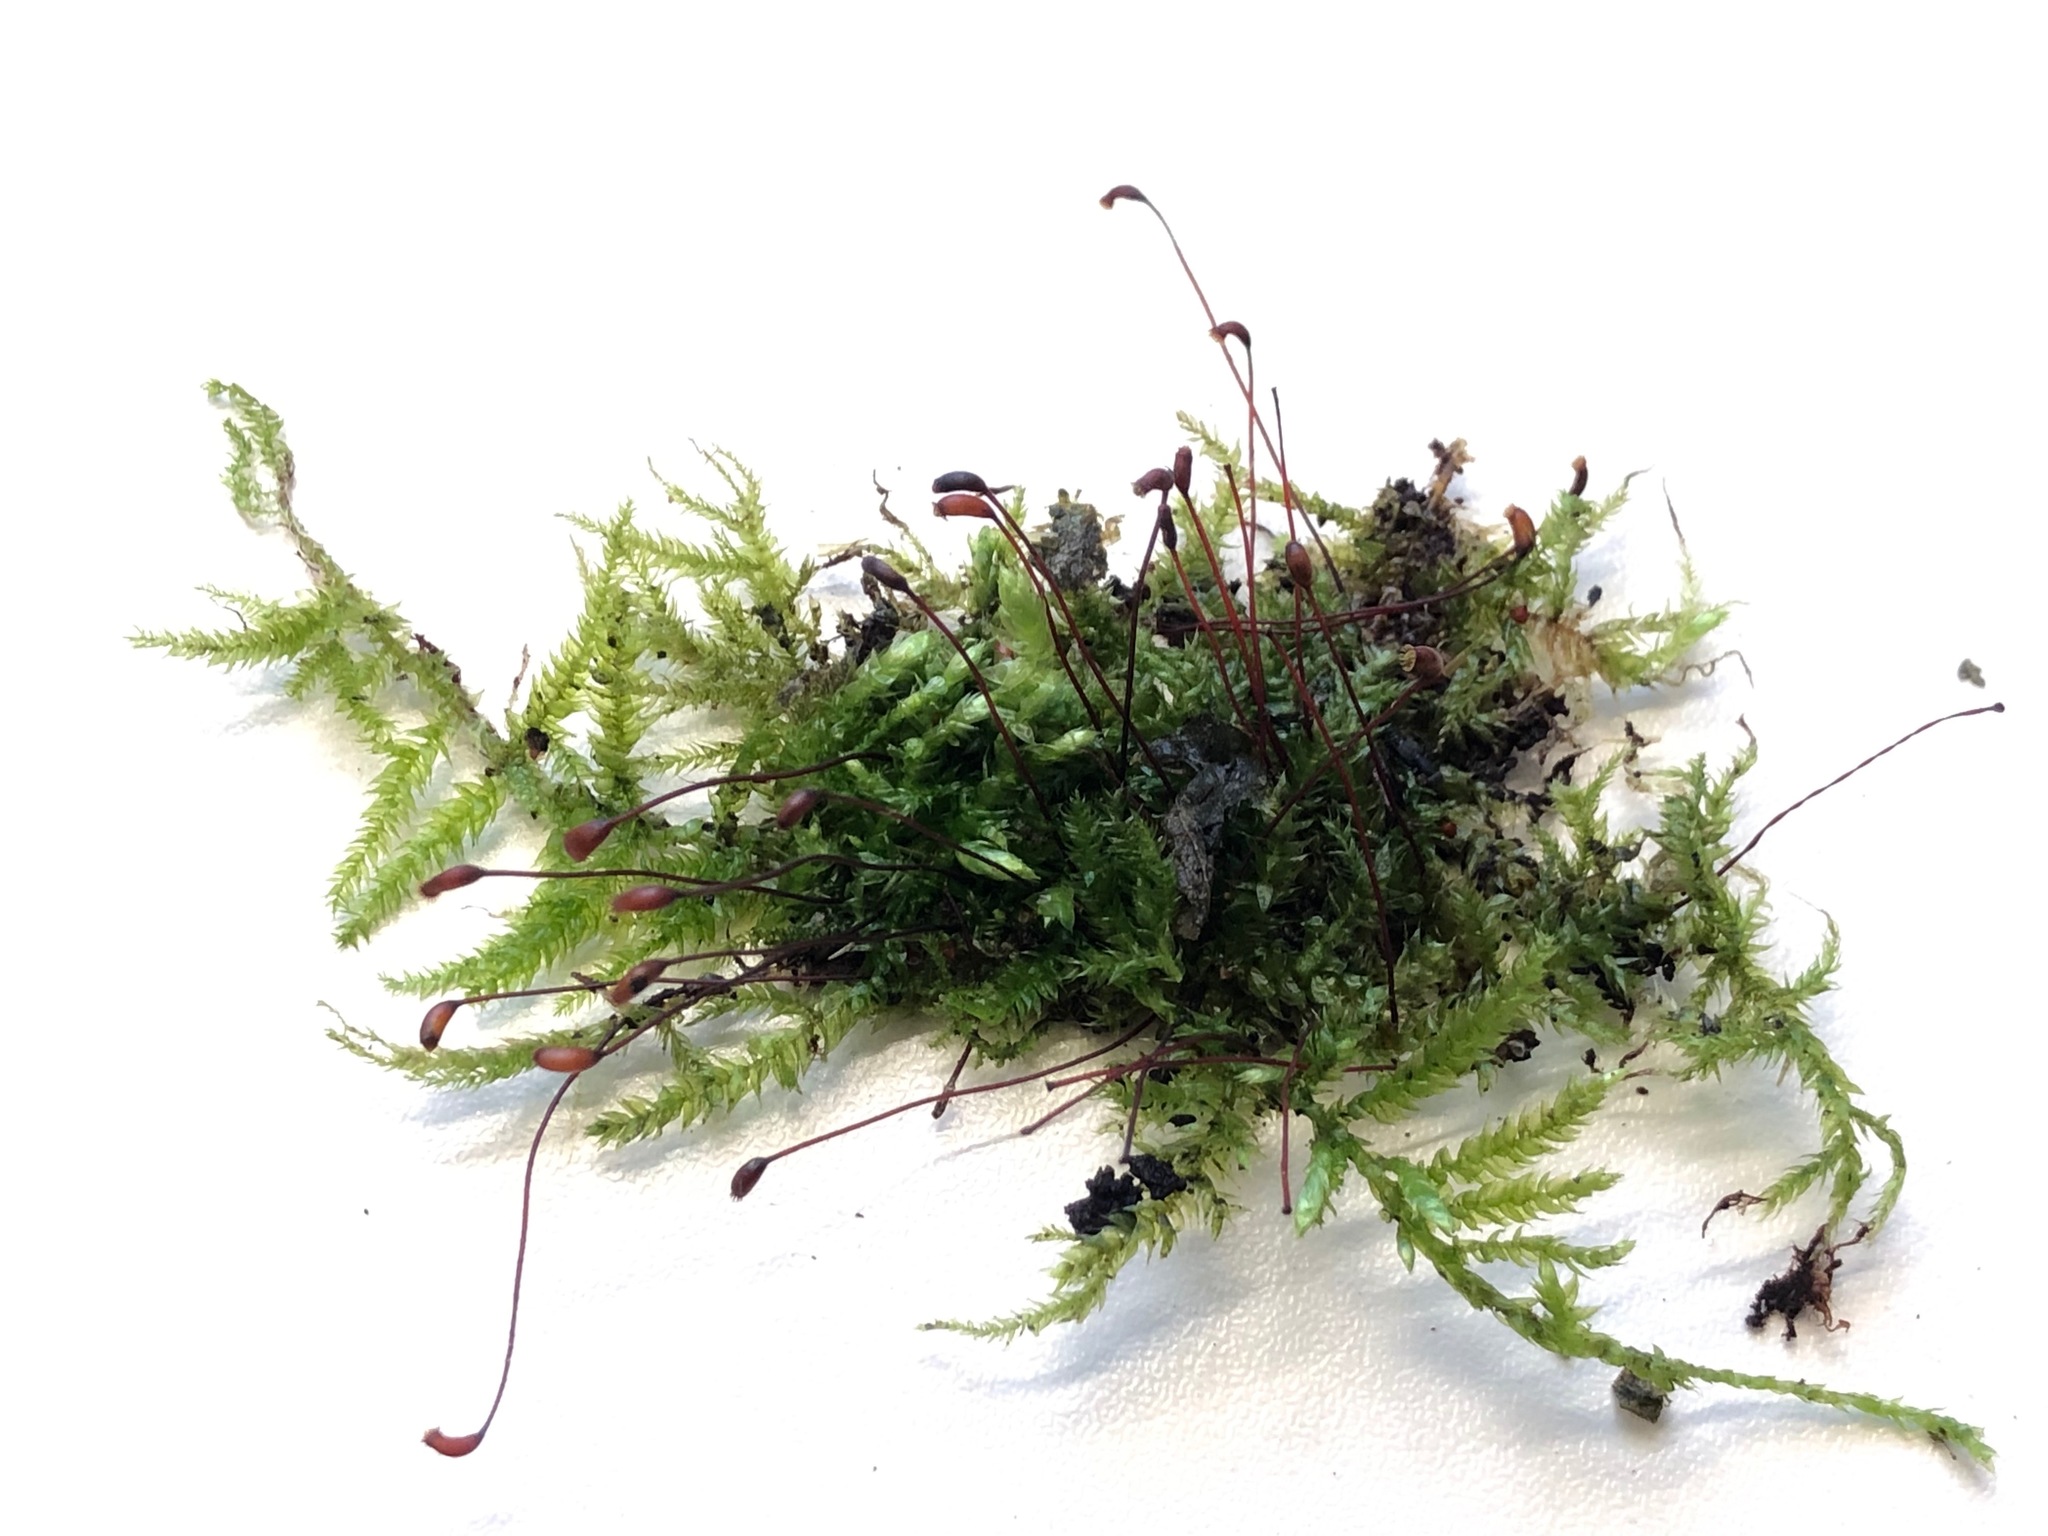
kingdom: Plantae
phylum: Bryophyta
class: Bryopsida
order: Hypnales
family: Brachytheciaceae
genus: Brachythecium
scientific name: Brachythecium rutabulum
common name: Rough-stalked feather-moss
